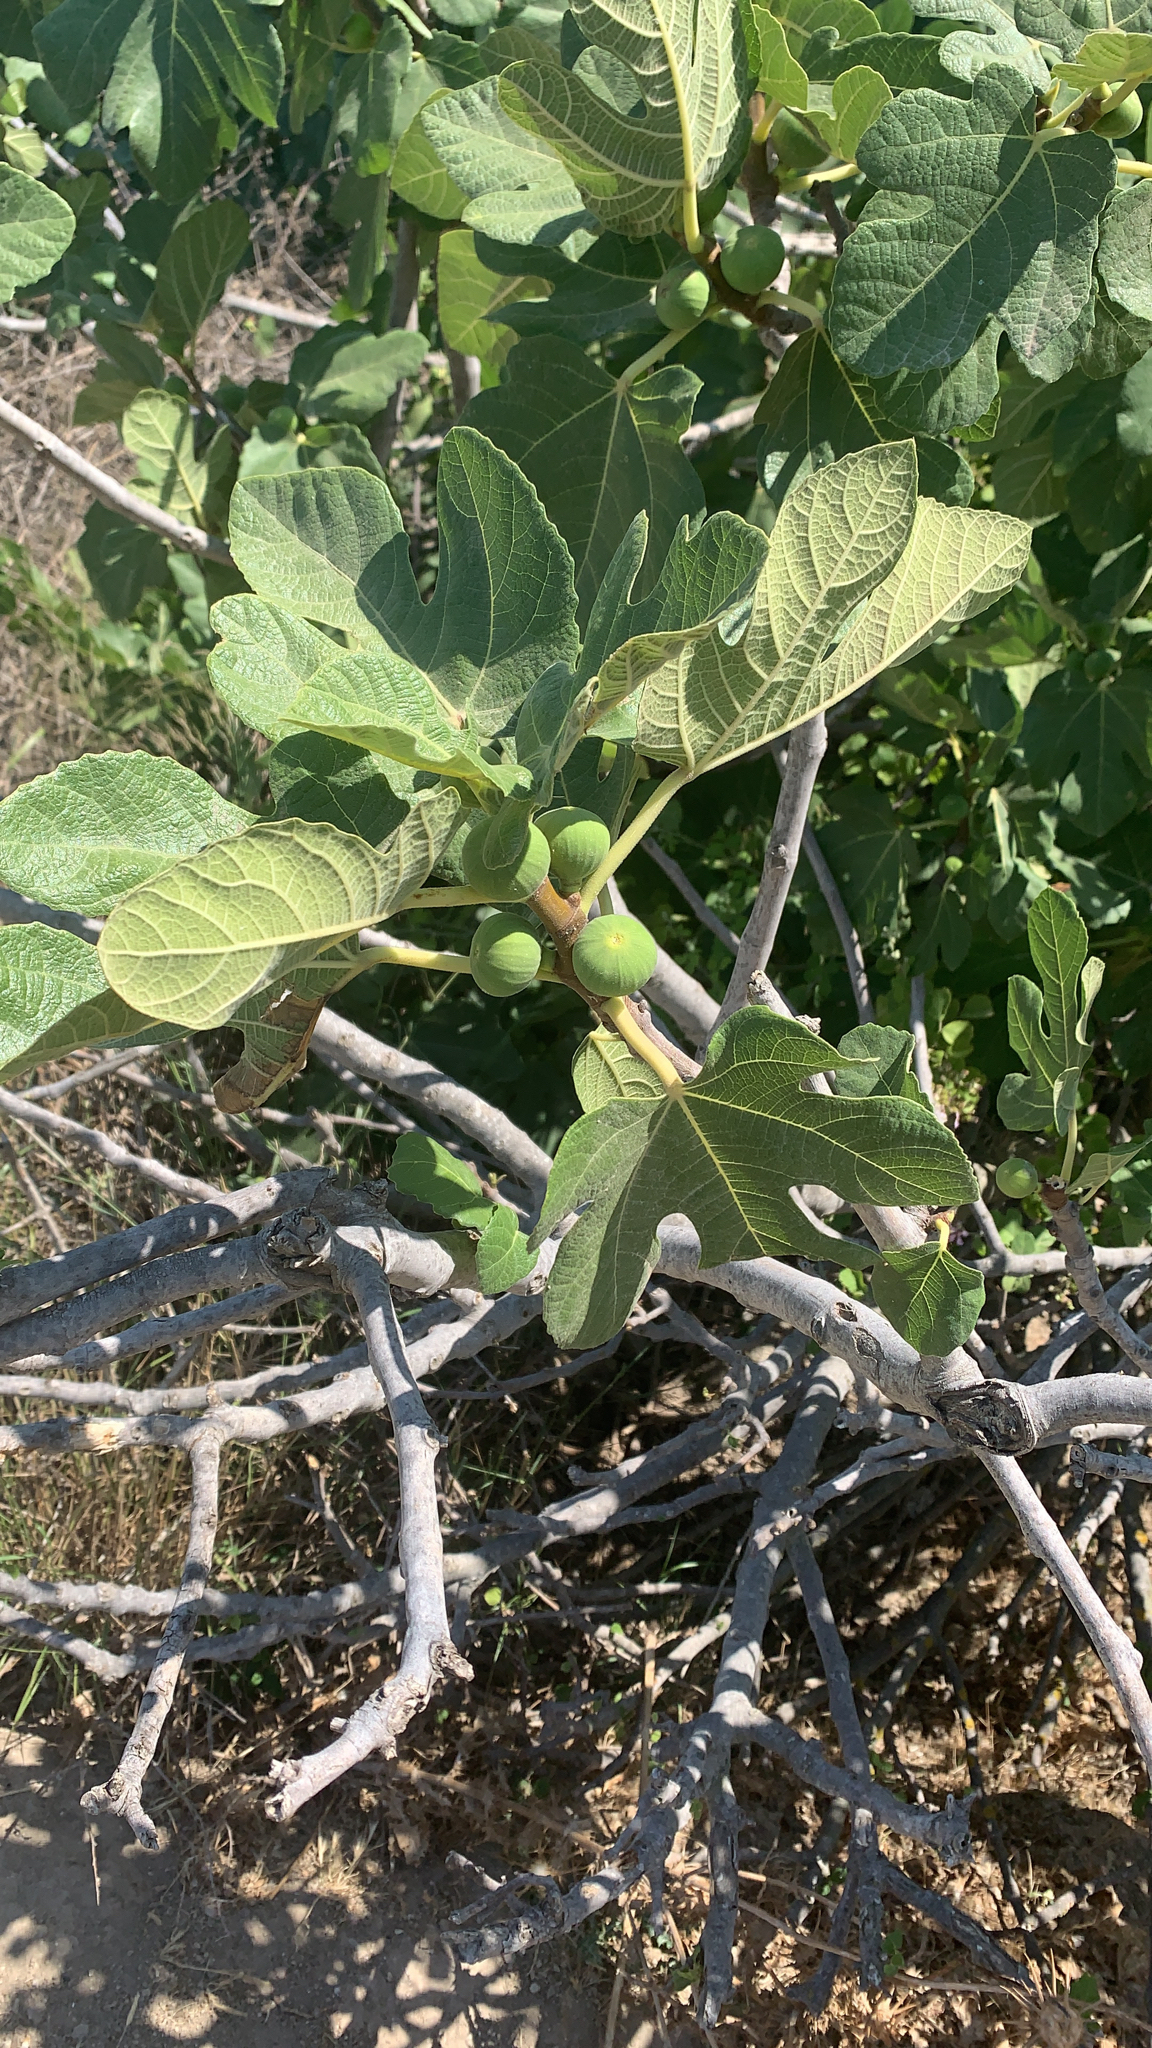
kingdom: Plantae
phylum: Tracheophyta
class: Magnoliopsida
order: Rosales
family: Moraceae
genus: Ficus
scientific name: Ficus carica
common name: Fig
